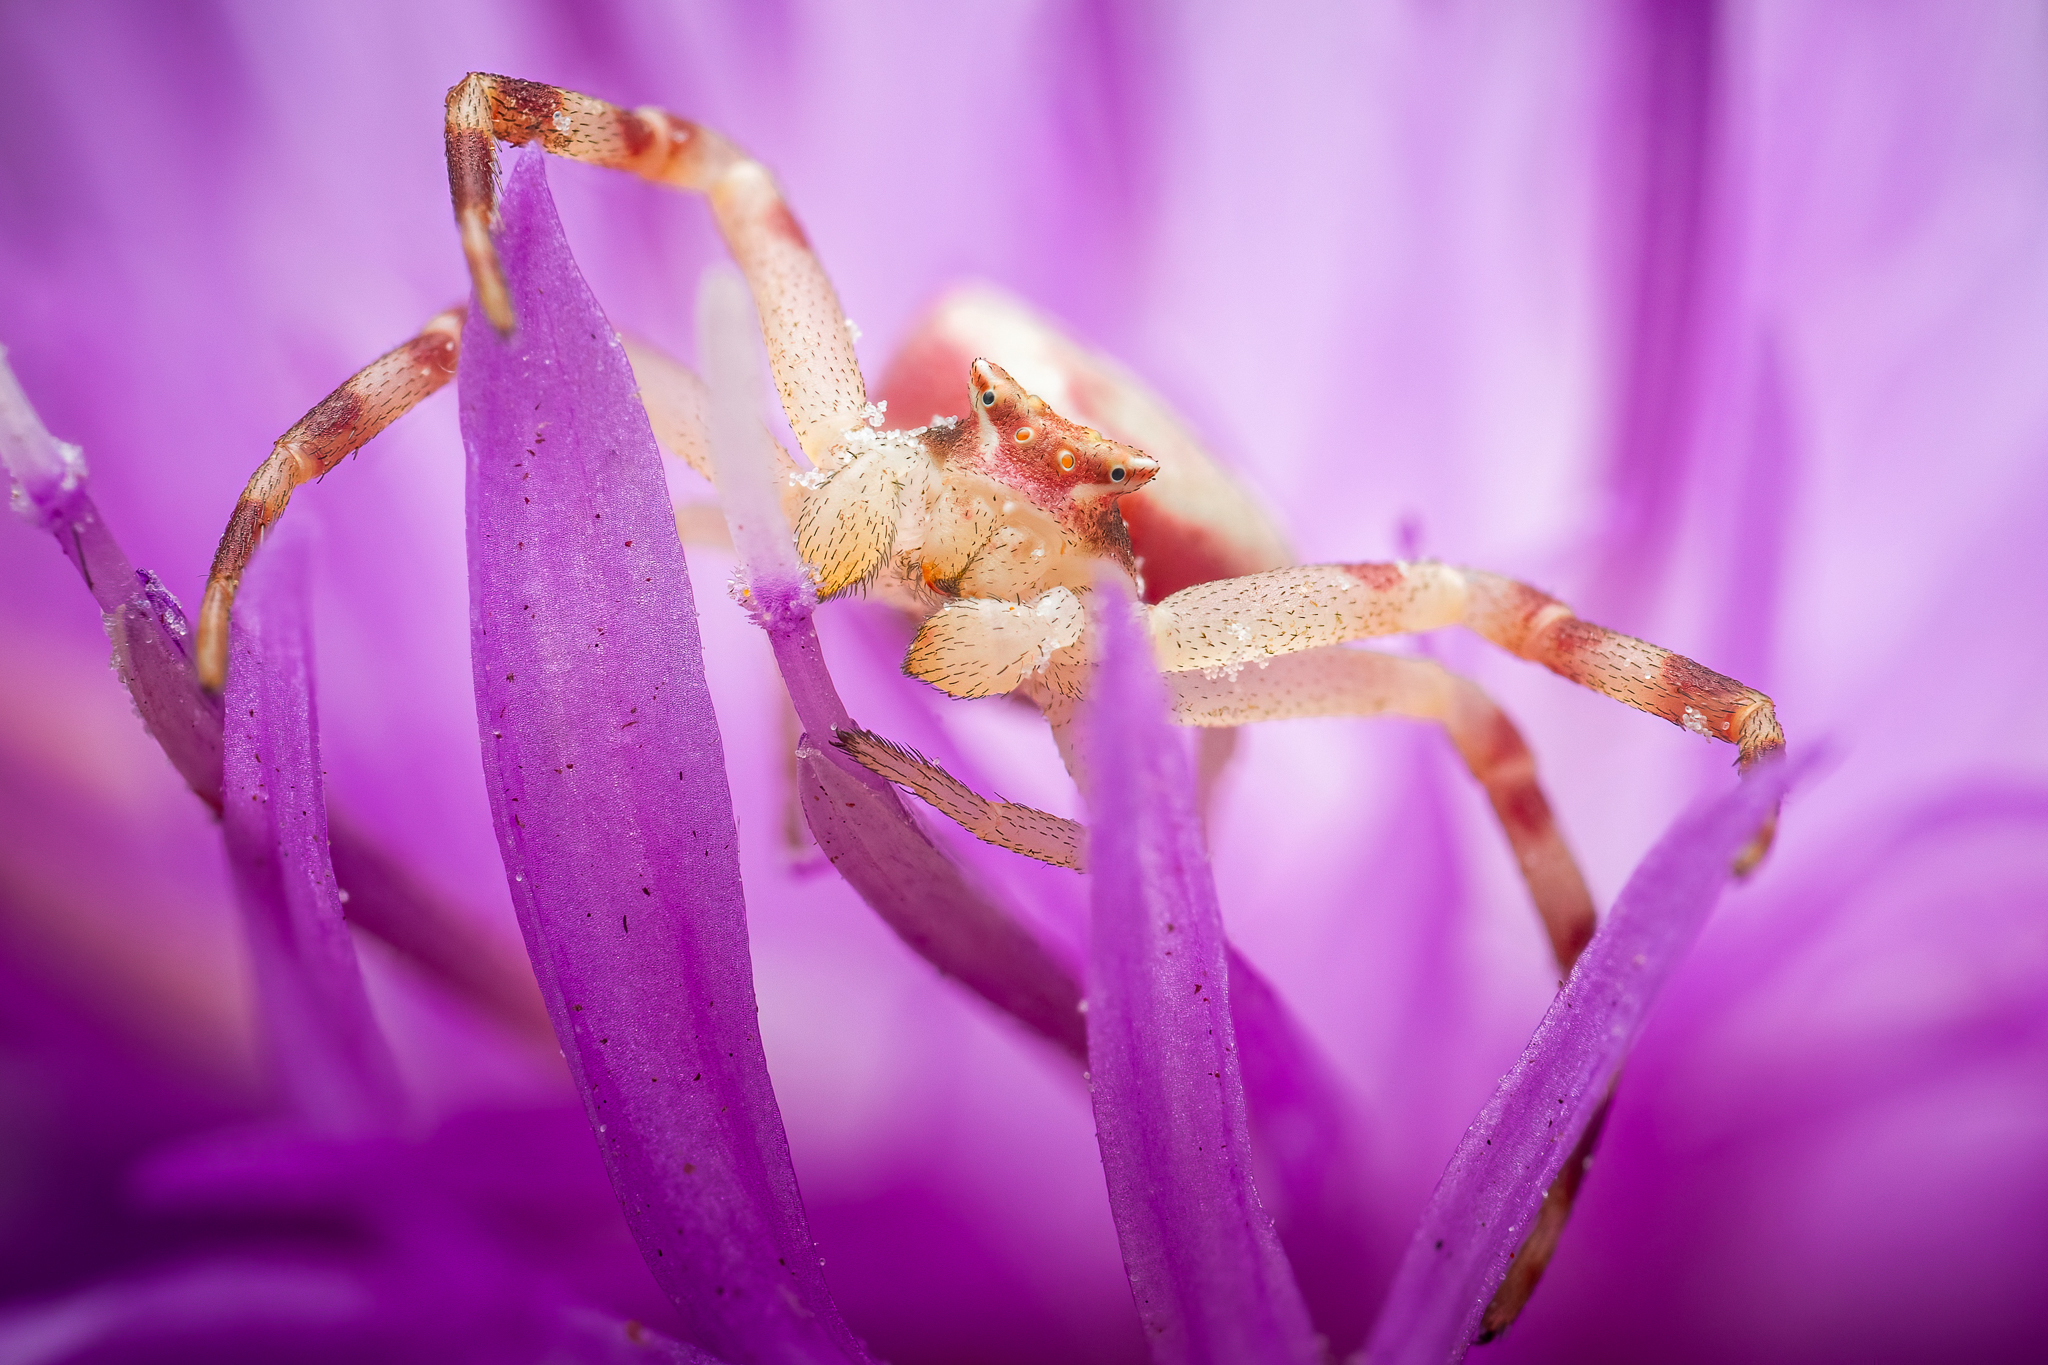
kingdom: Animalia
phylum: Arthropoda
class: Arachnida
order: Araneae
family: Thomisidae
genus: Thomisus
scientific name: Thomisus onustus
